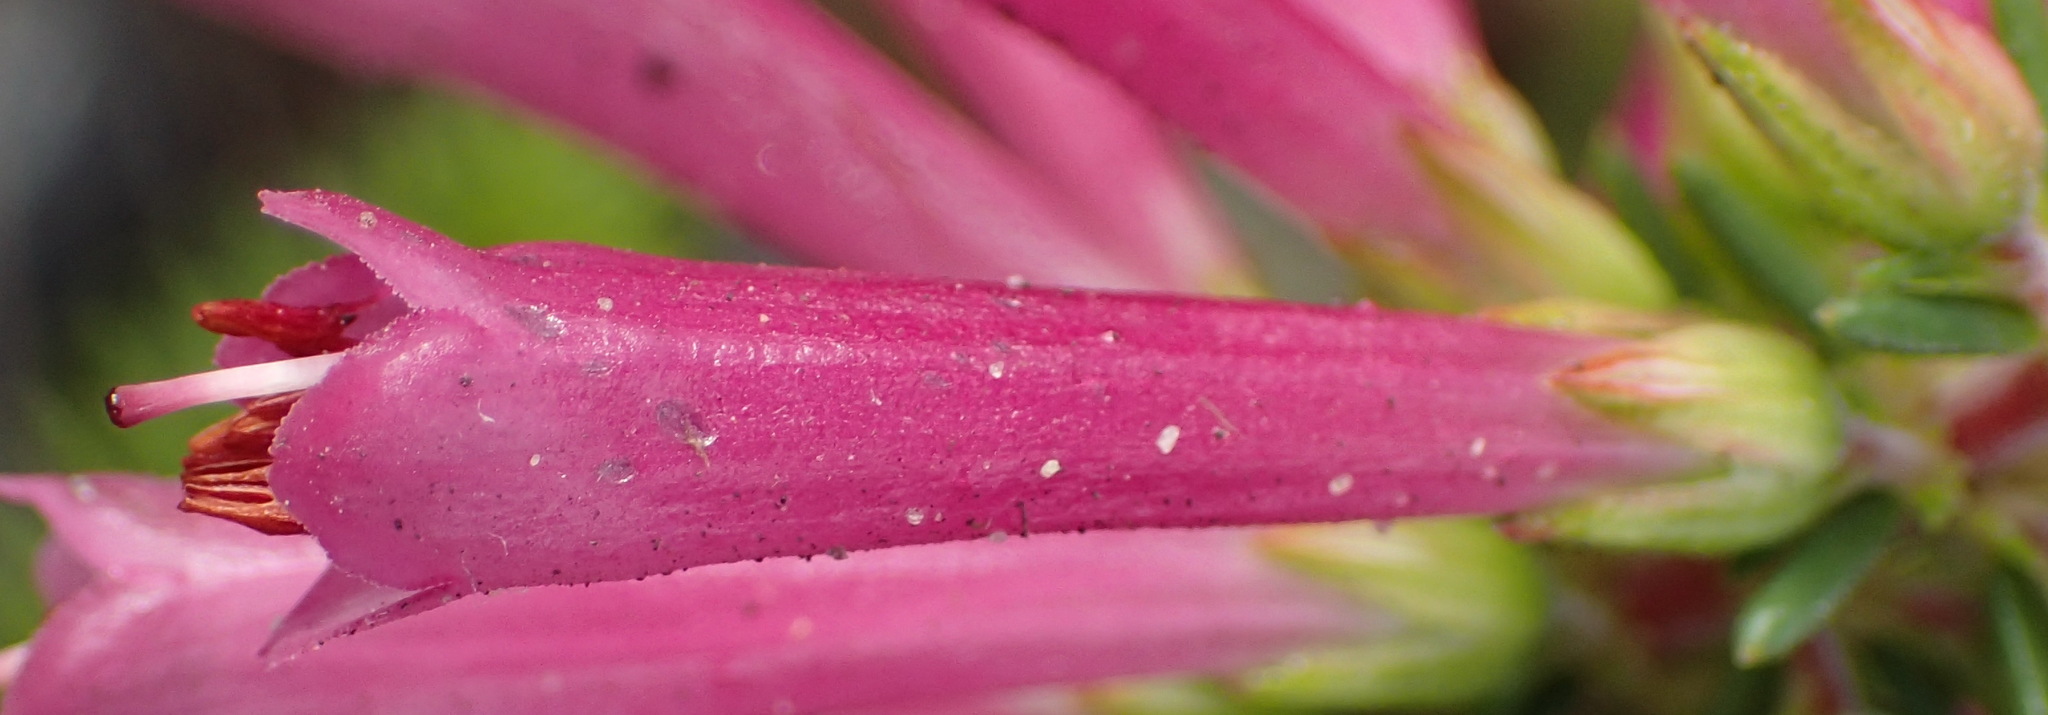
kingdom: Plantae
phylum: Tracheophyta
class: Magnoliopsida
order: Ericales
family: Ericaceae
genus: Erica
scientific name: Erica abietina
